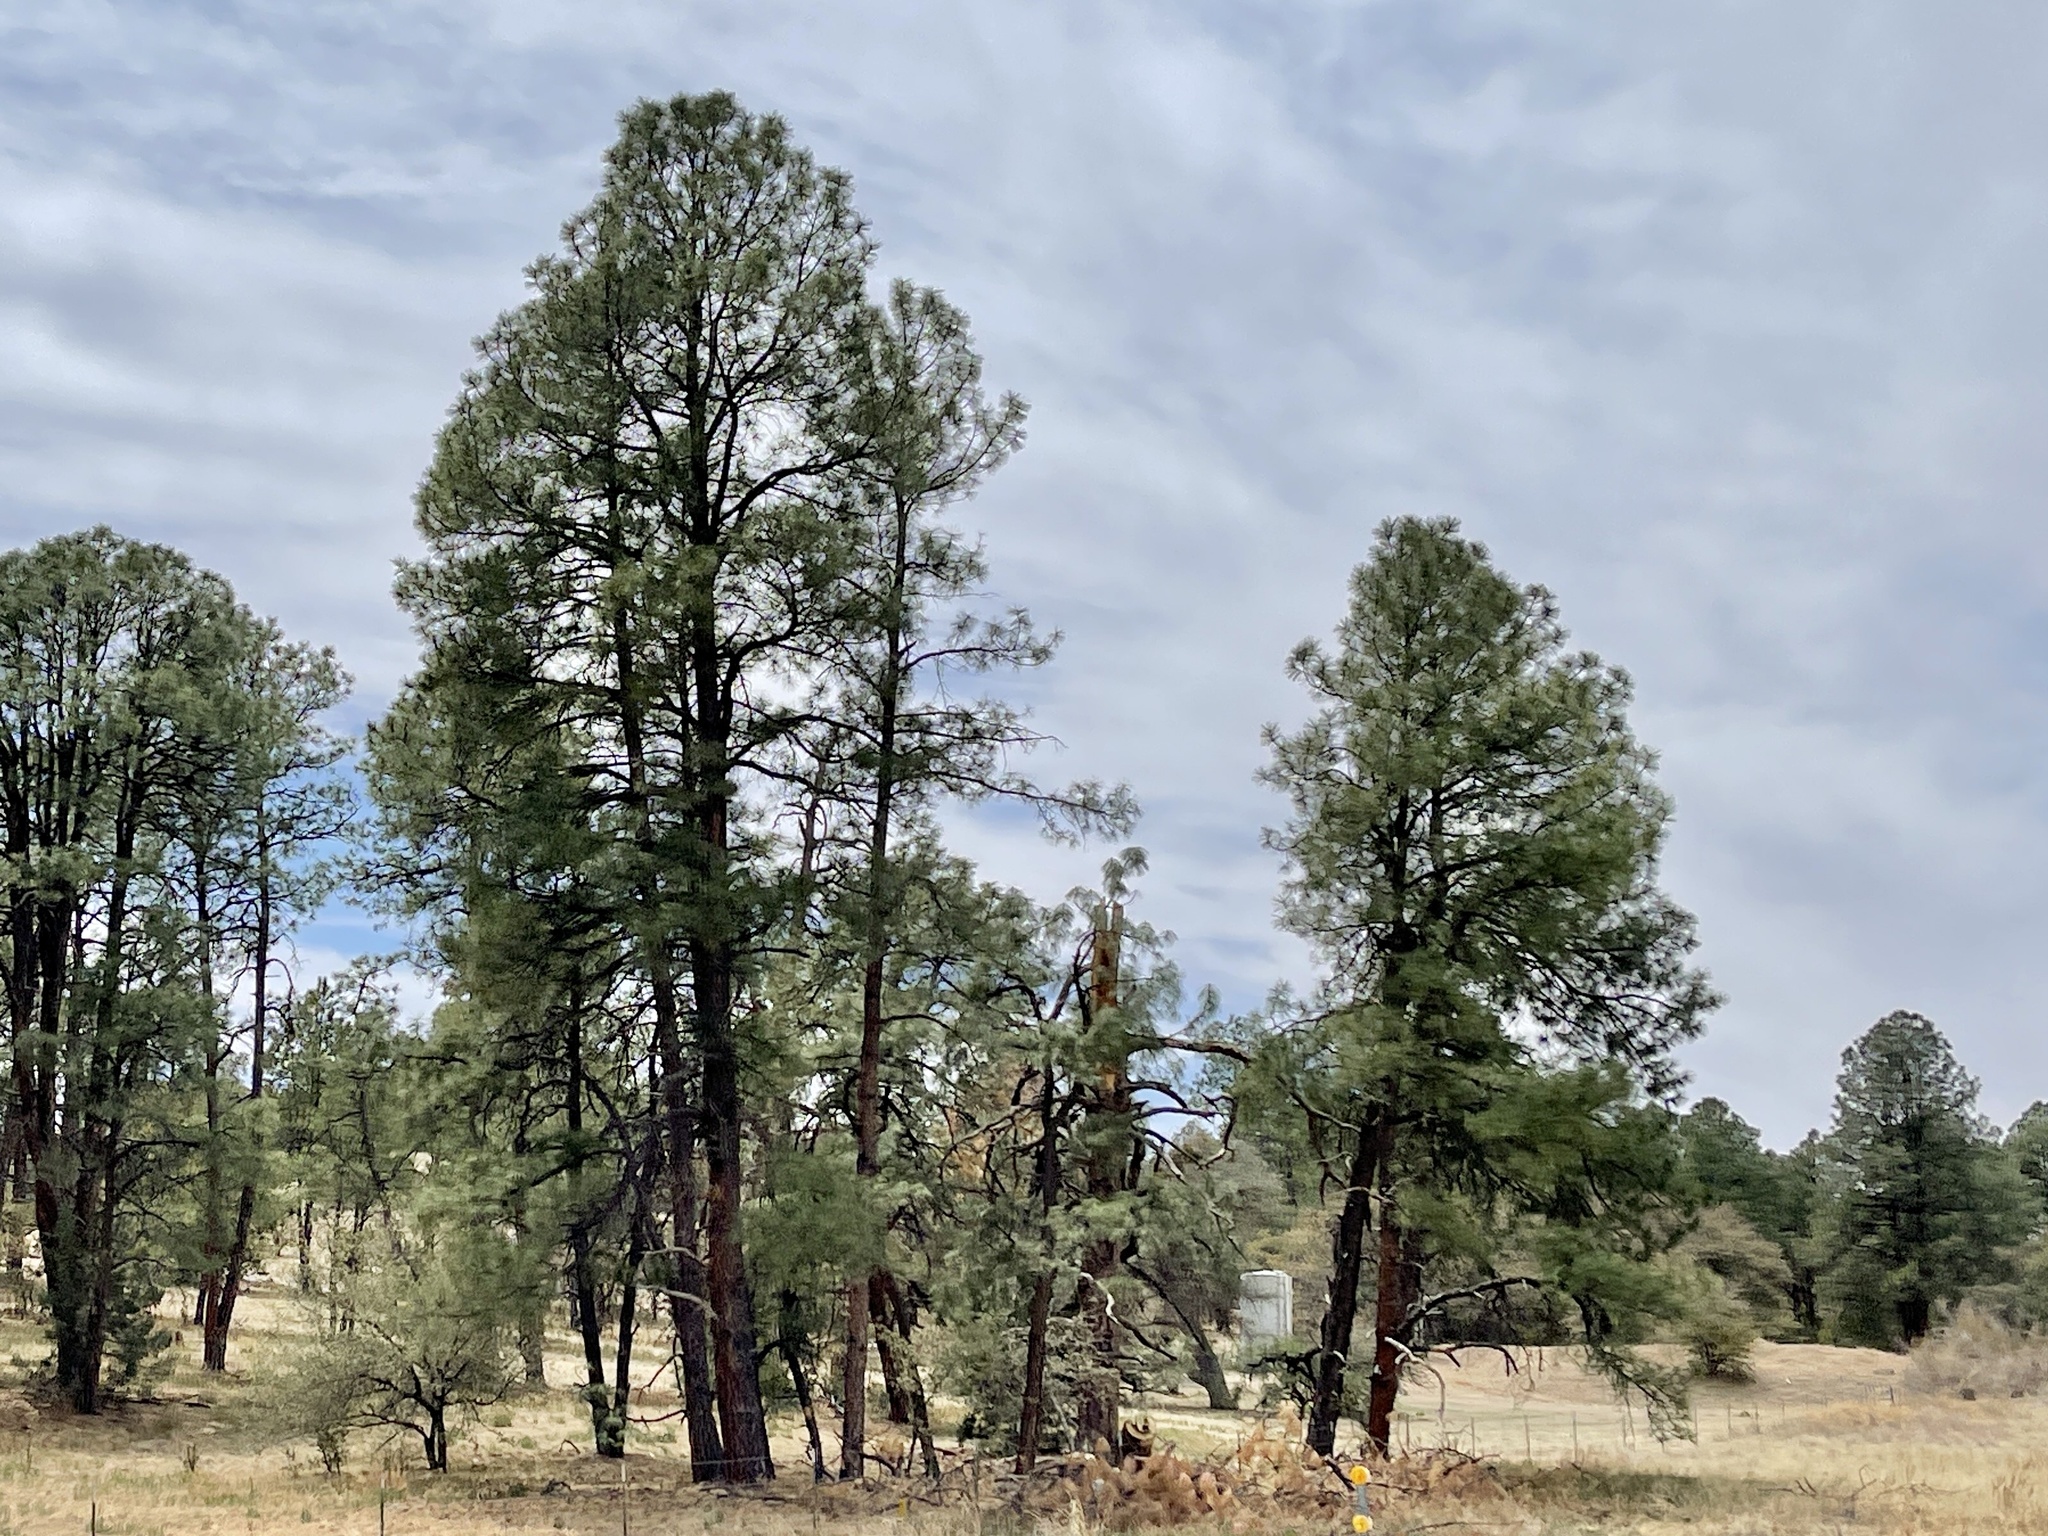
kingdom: Plantae
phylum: Tracheophyta
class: Pinopsida
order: Pinales
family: Pinaceae
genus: Pinus
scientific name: Pinus ponderosa
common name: Western yellow-pine
